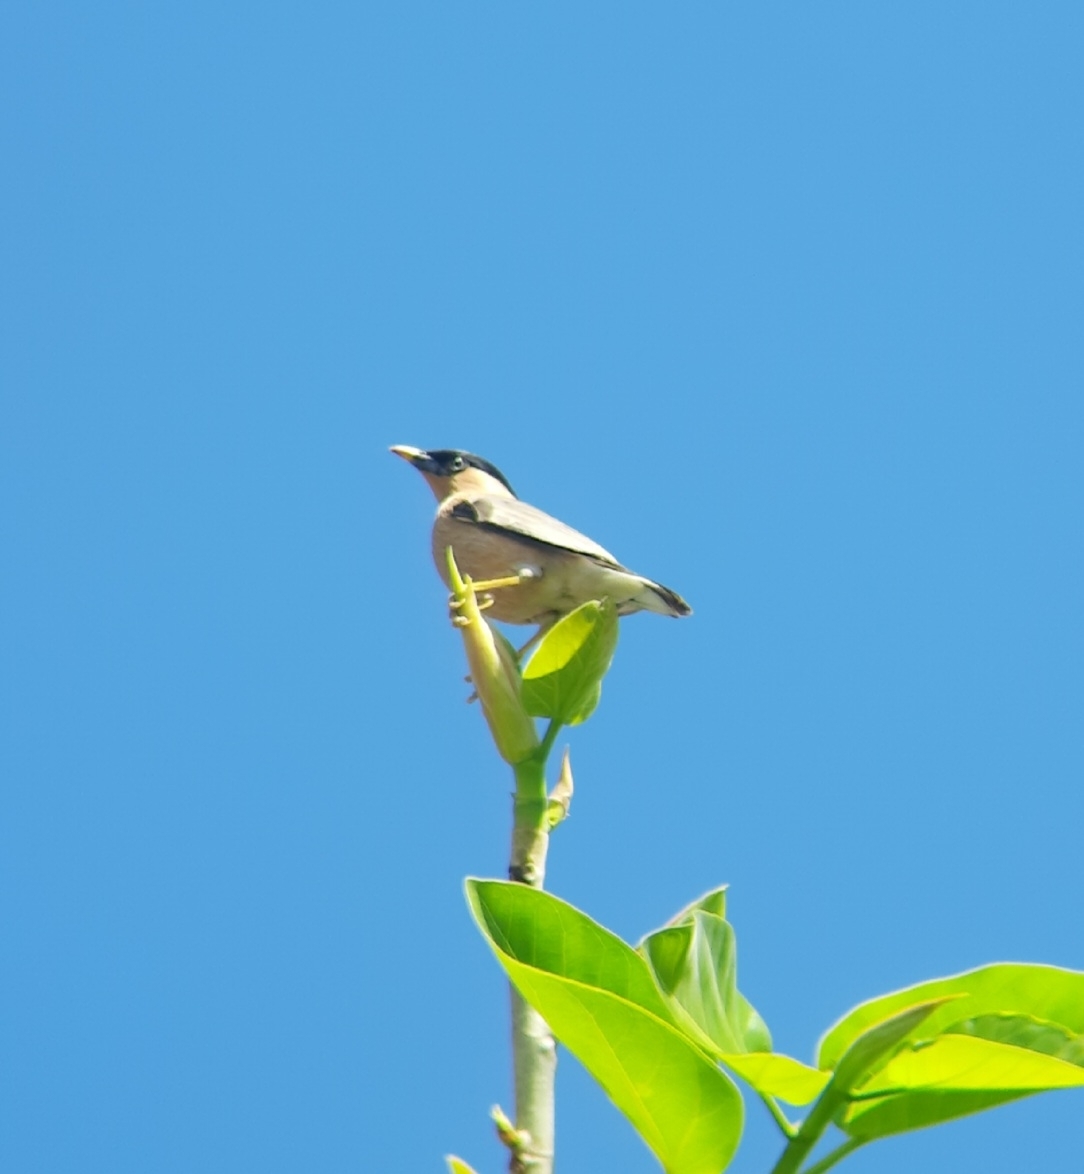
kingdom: Animalia
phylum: Chordata
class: Aves
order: Passeriformes
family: Sturnidae
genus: Sturnia
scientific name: Sturnia pagodarum
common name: Brahminy starling
